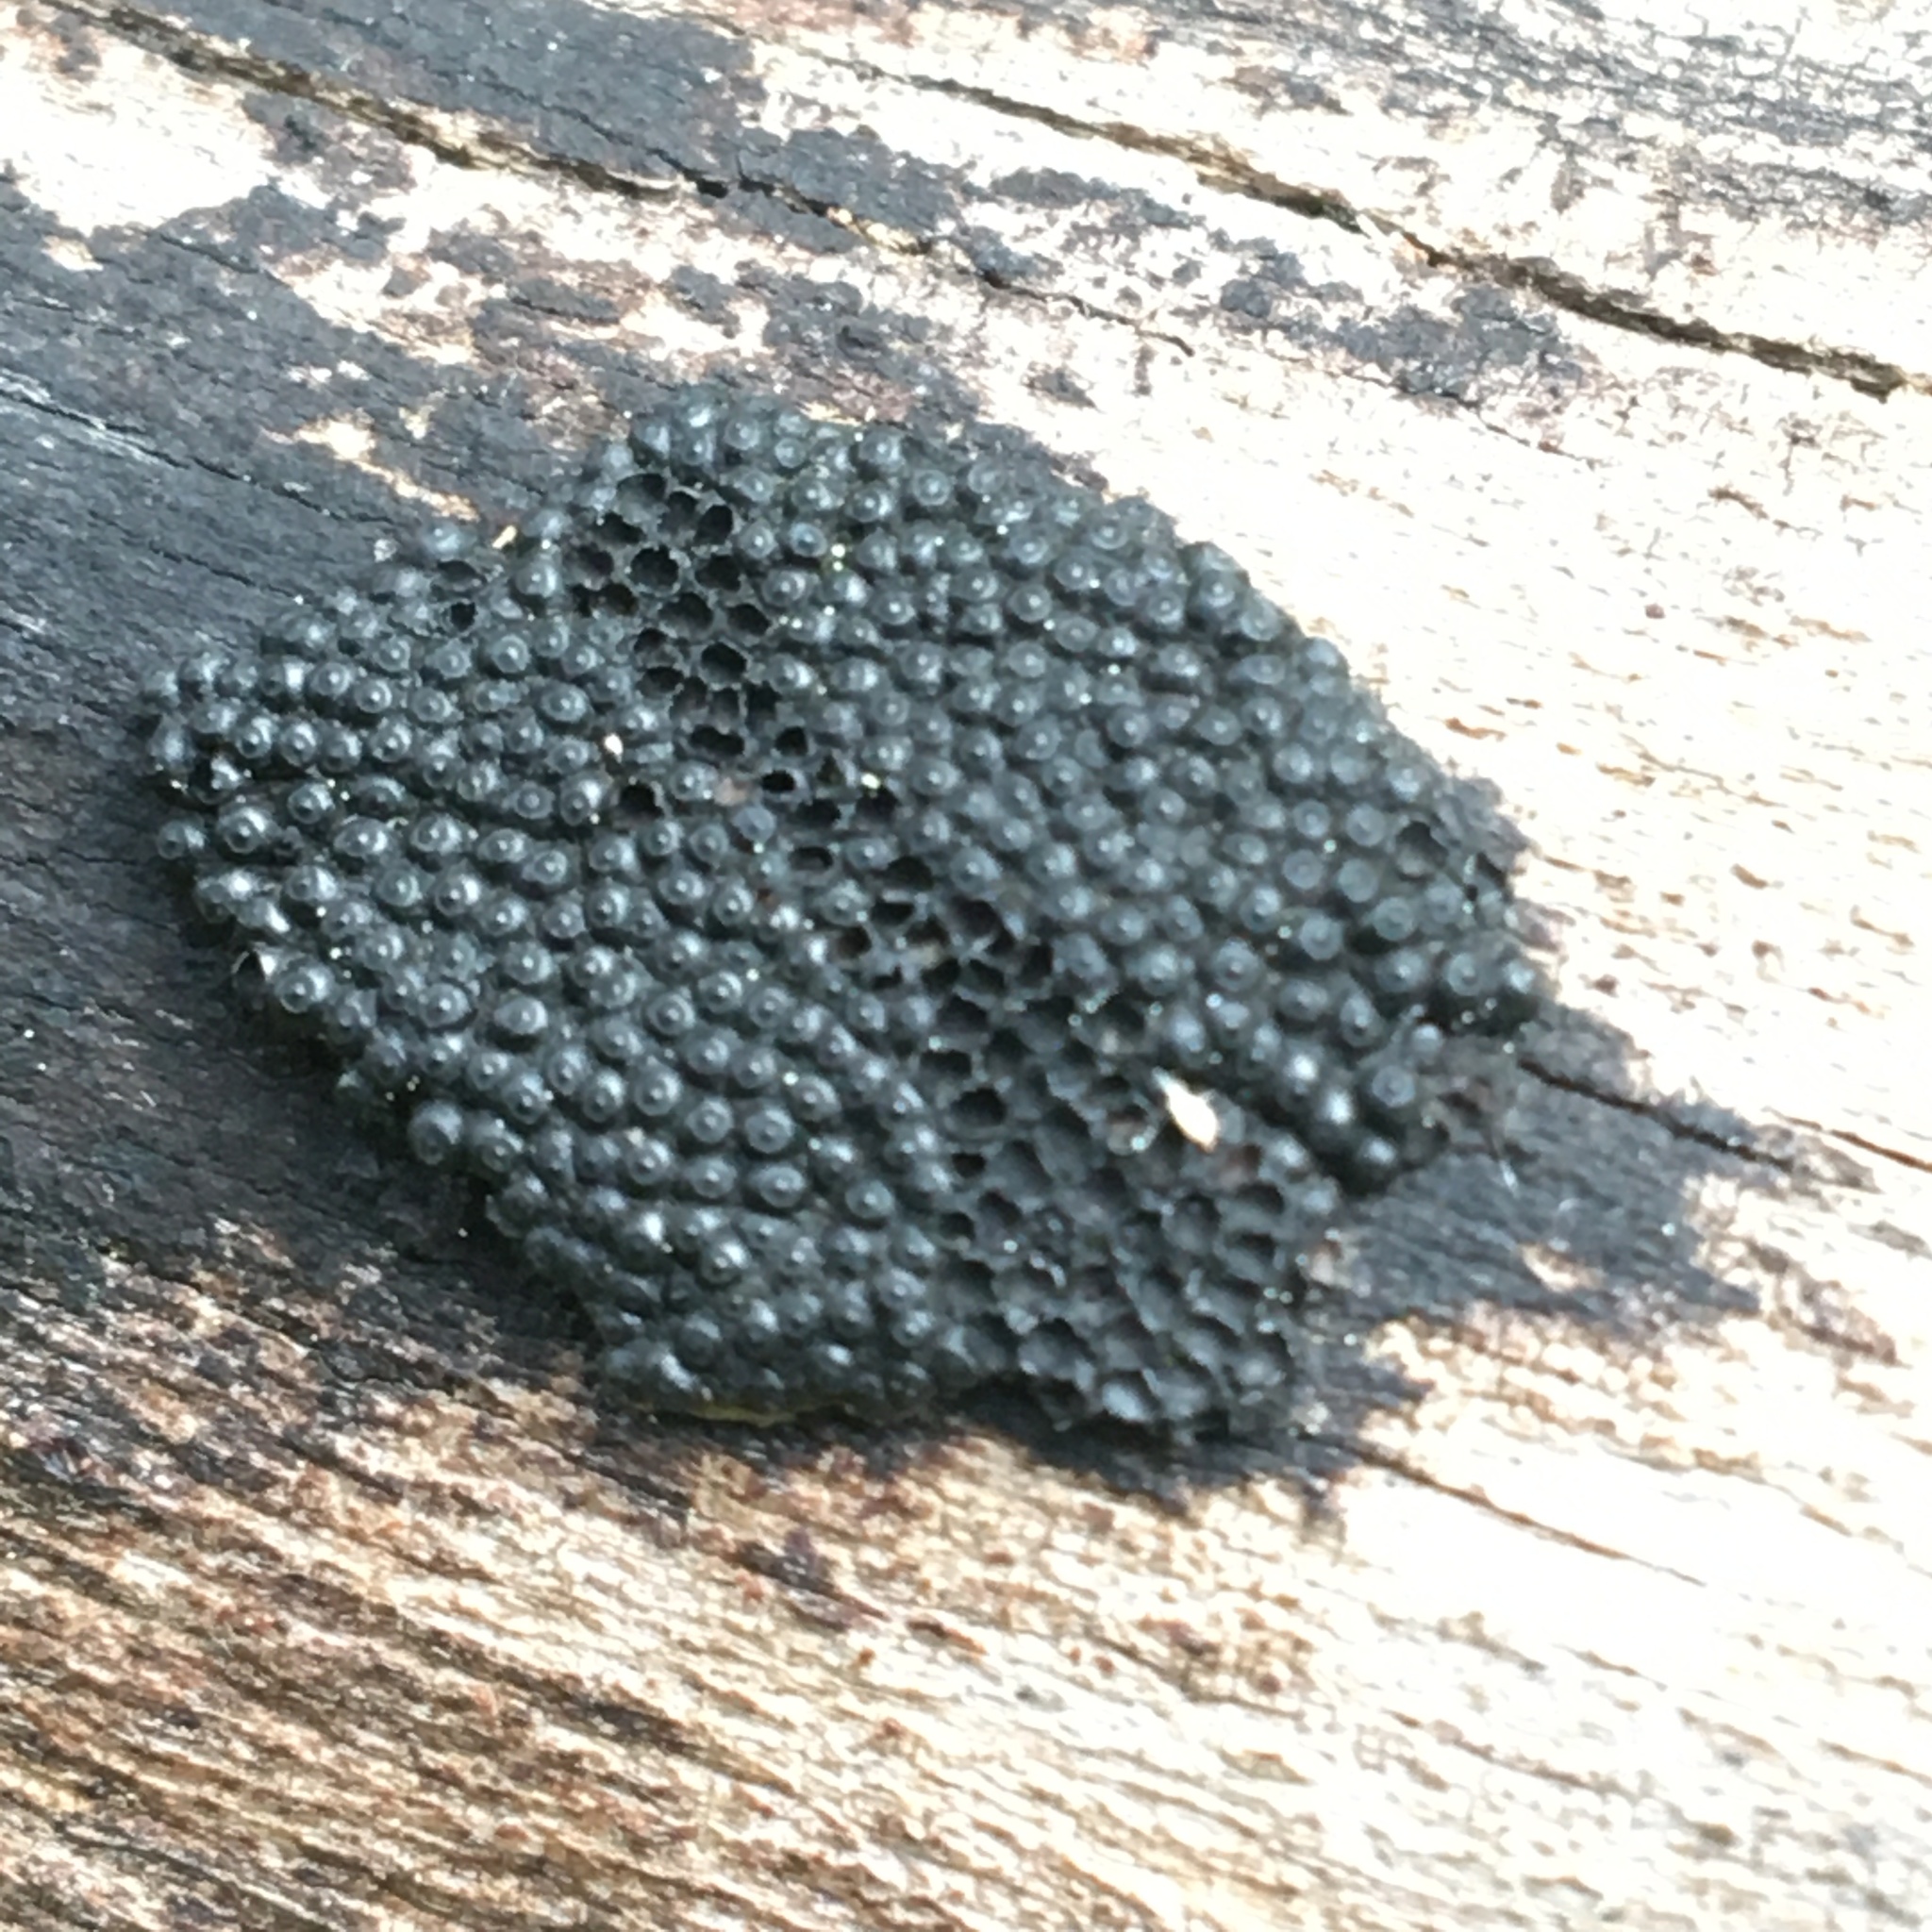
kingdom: Fungi
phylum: Ascomycota
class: Sordariomycetes
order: Xylariales
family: Hypoxylaceae
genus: Annulohypoxylon
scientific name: Annulohypoxylon bovei
